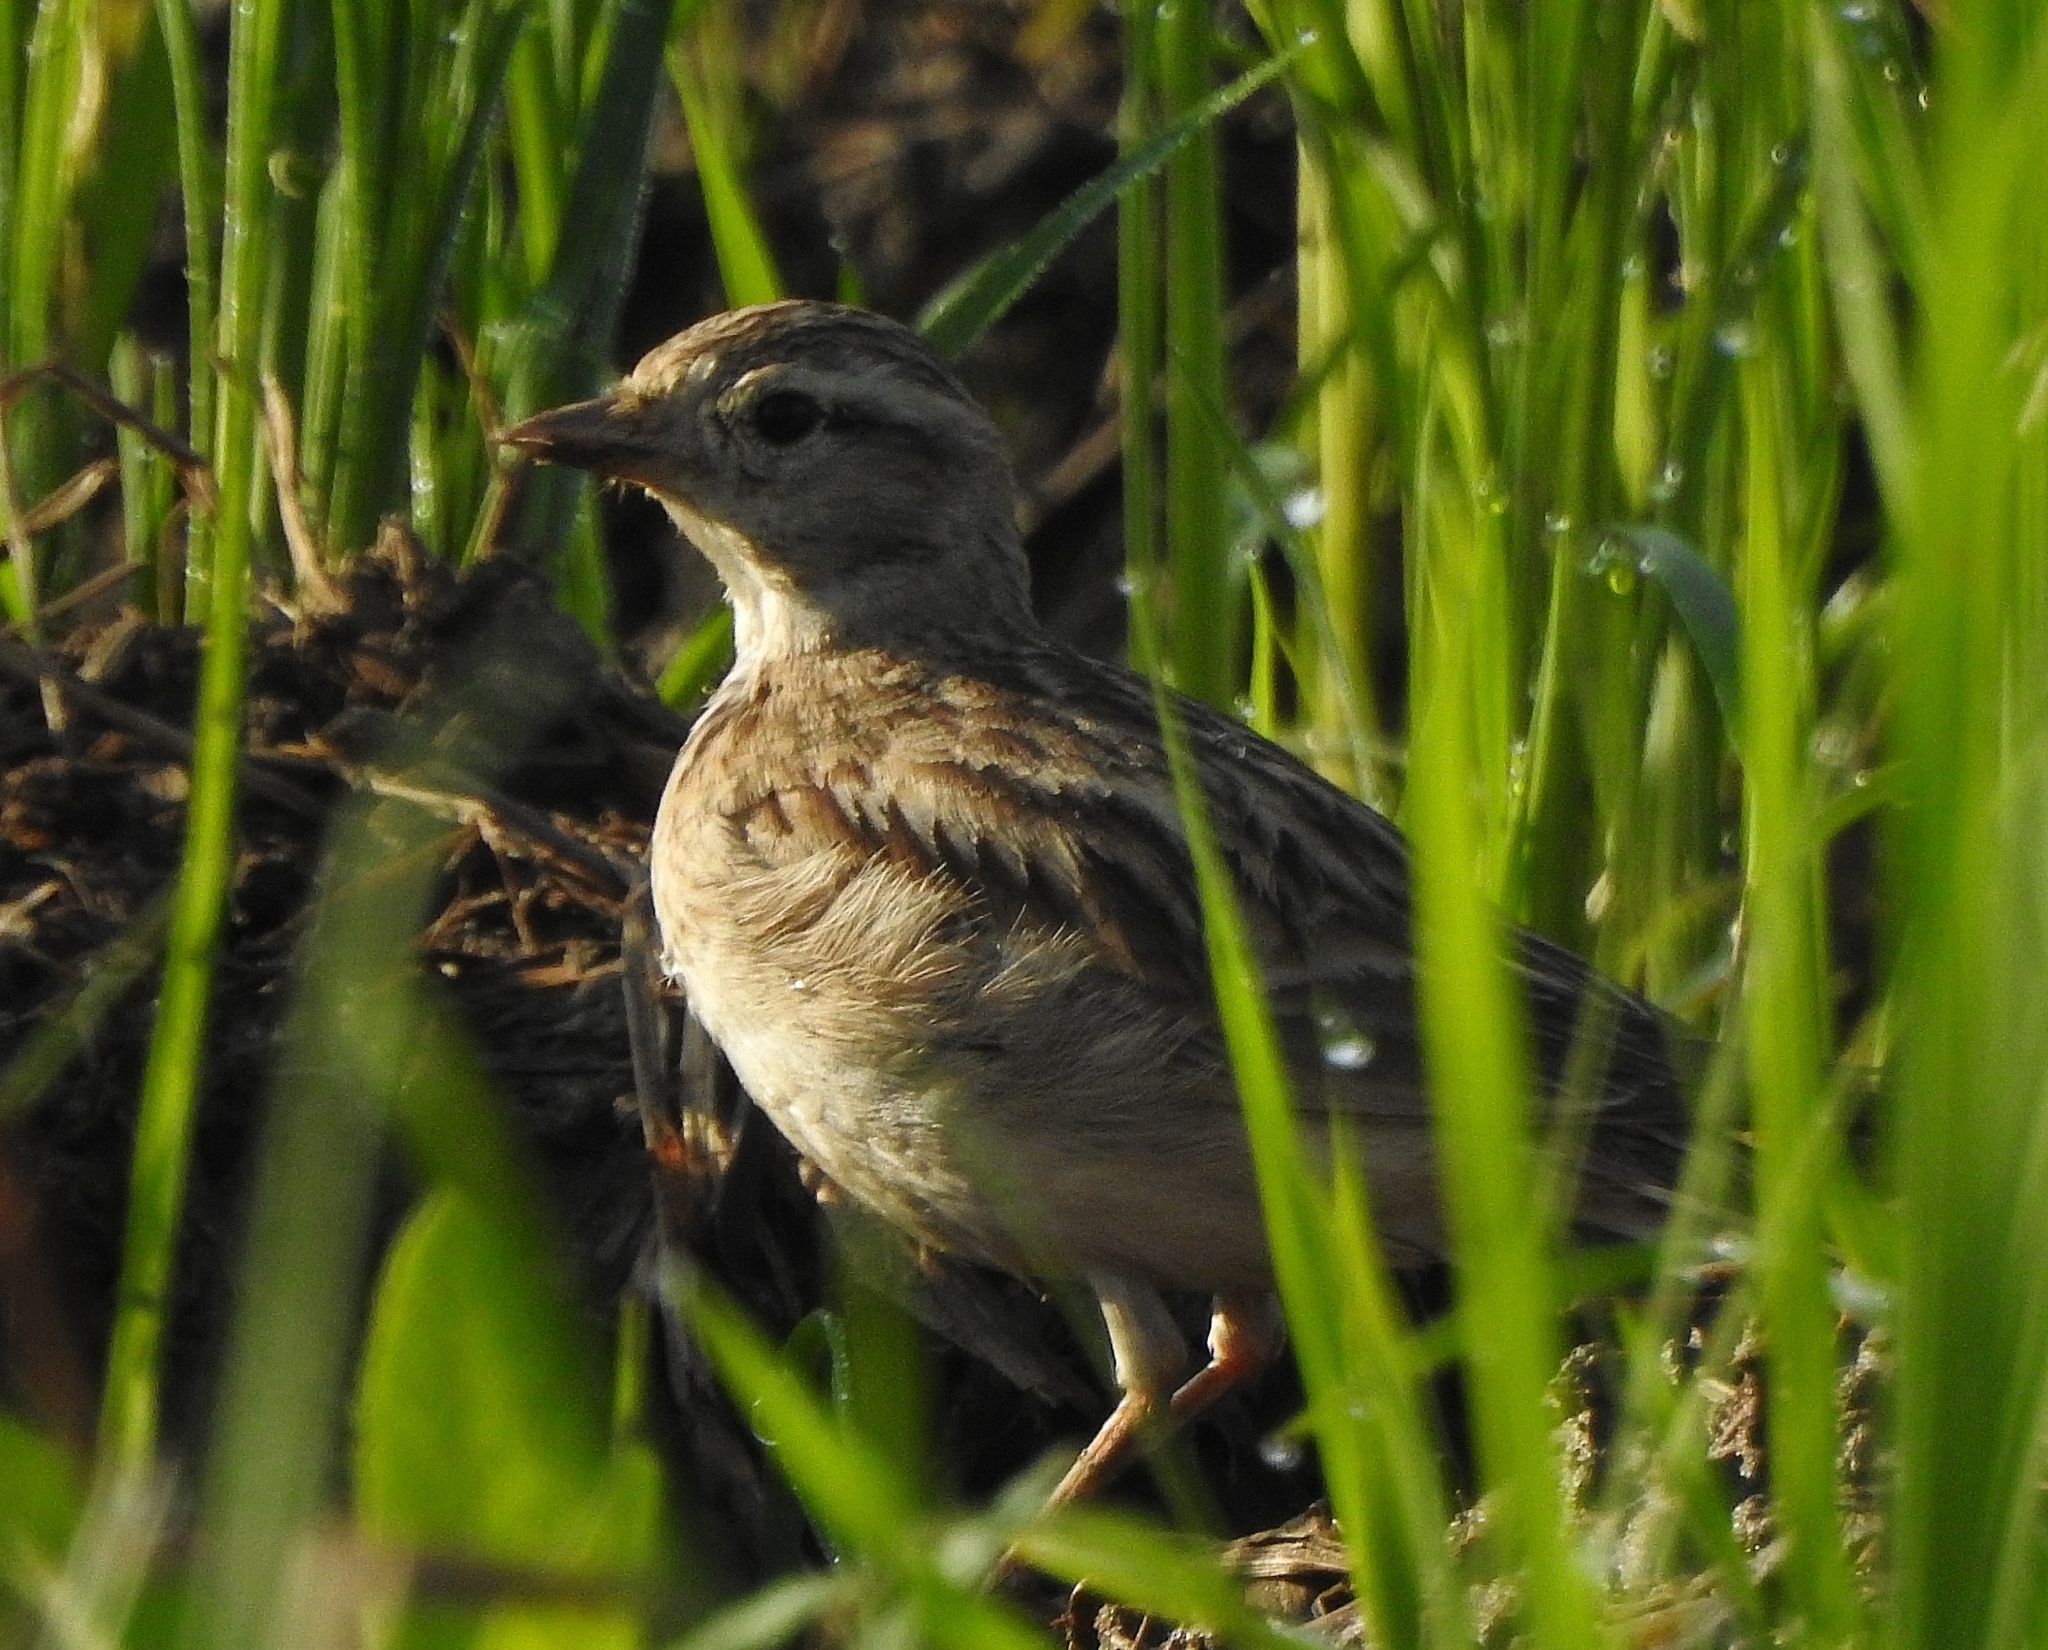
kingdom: Animalia
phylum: Chordata
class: Aves
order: Passeriformes
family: Alaudidae
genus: Calandrella
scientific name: Calandrella brachydactyla
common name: Greater short-toed lark
